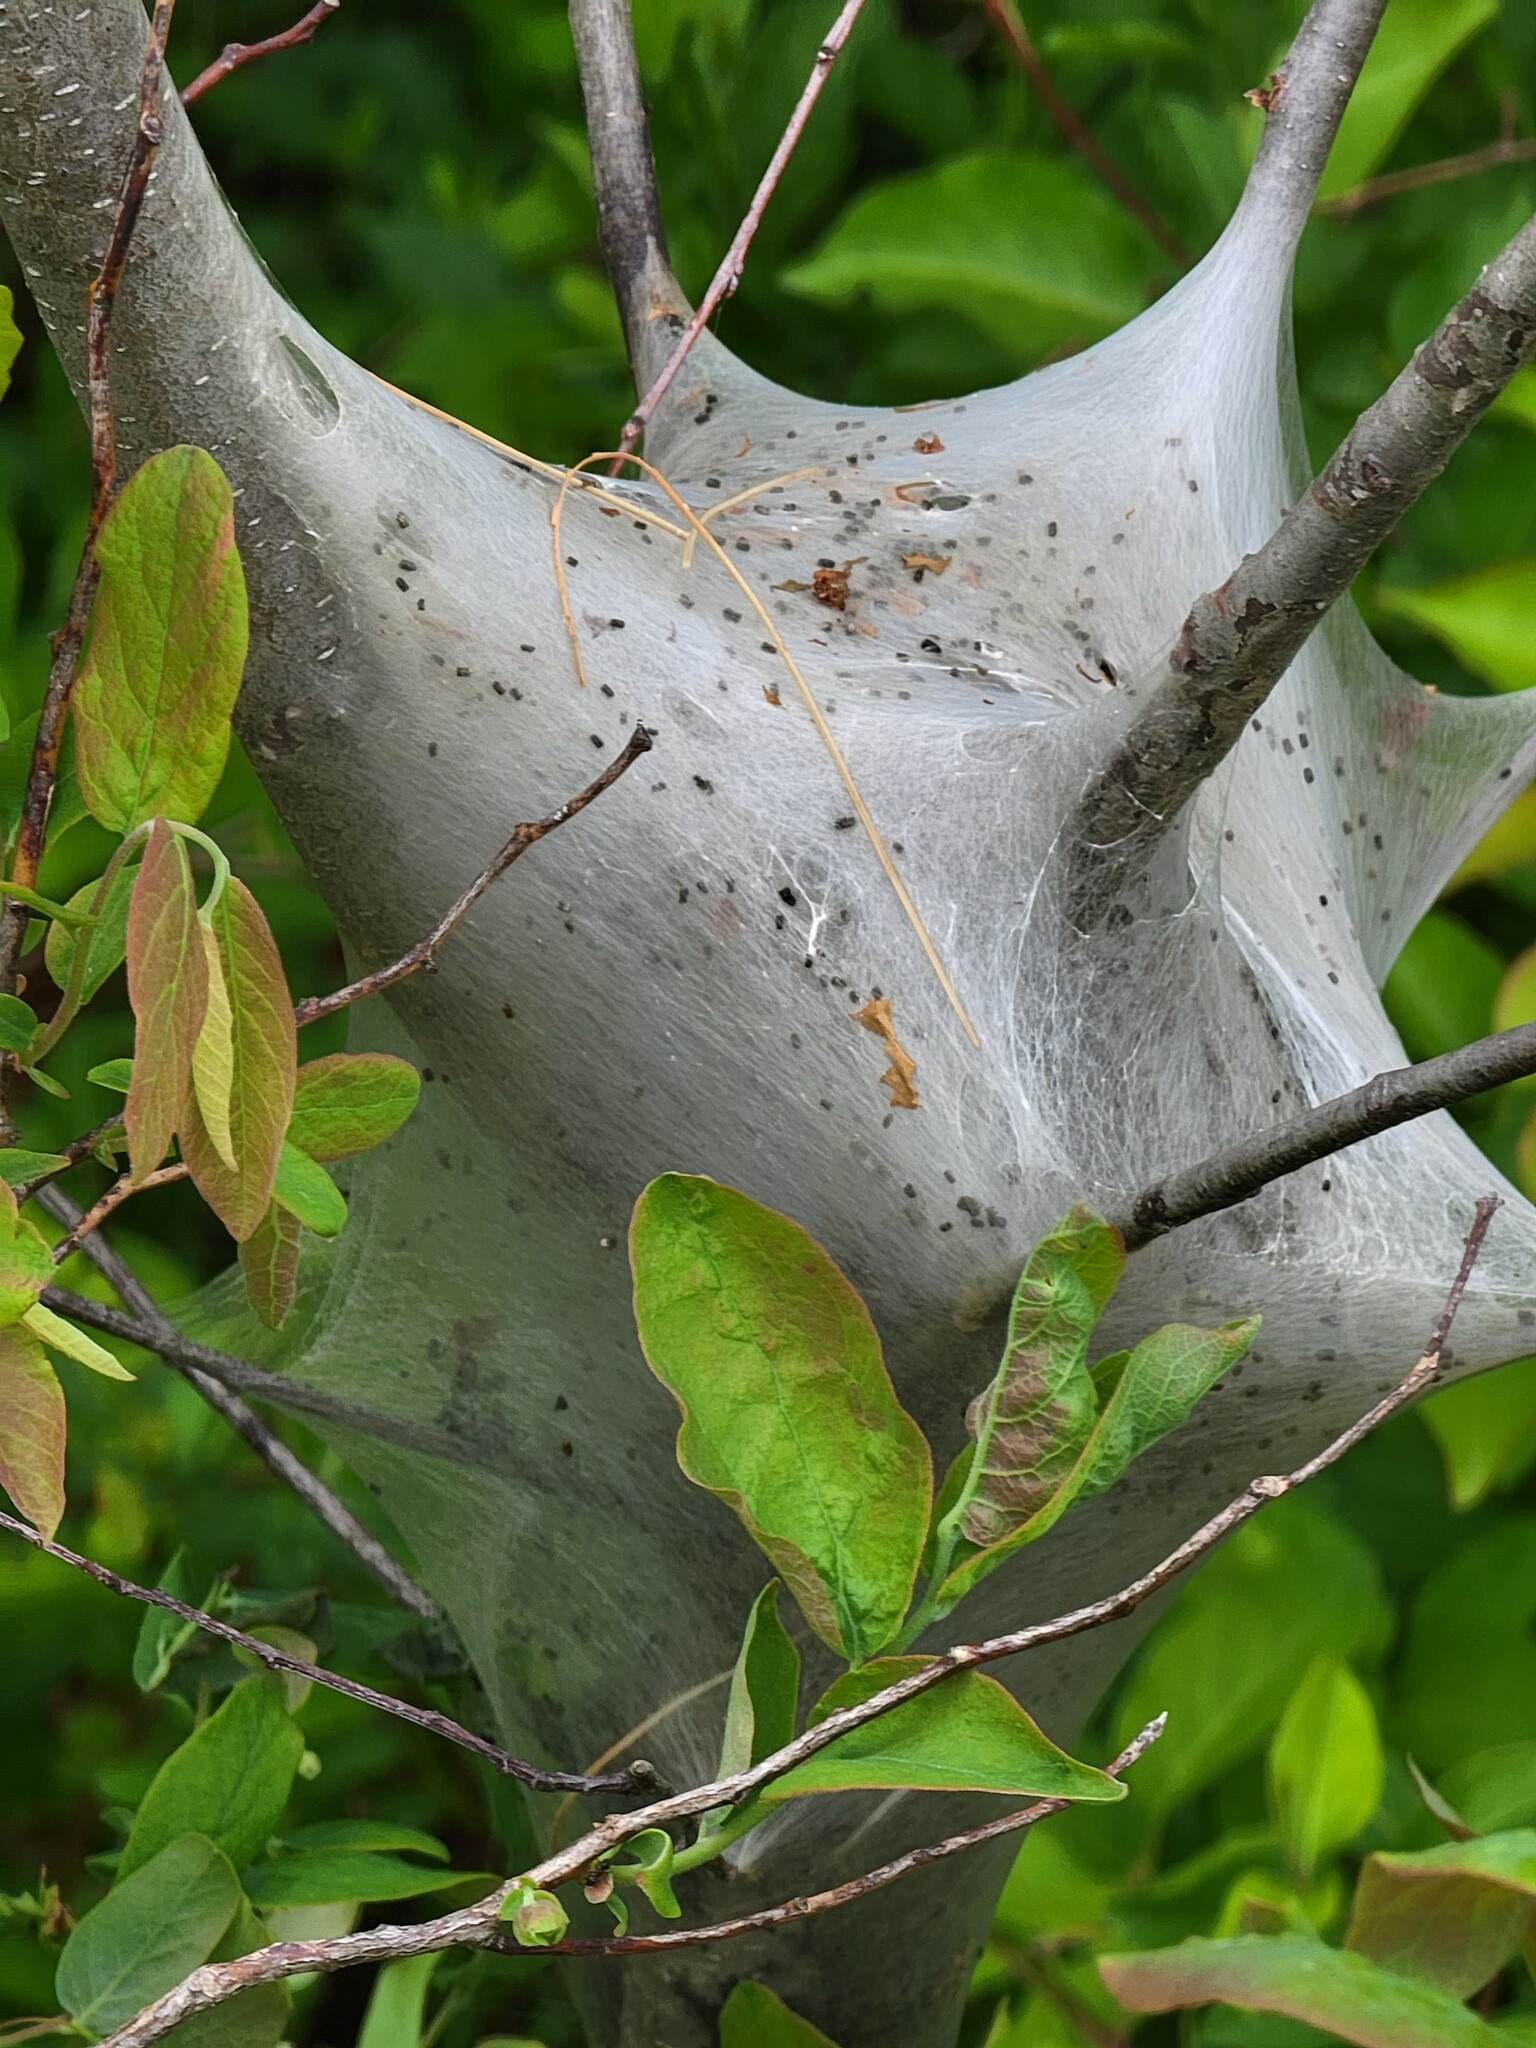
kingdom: Animalia
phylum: Arthropoda
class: Insecta
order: Lepidoptera
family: Lasiocampidae
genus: Malacosoma
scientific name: Malacosoma americana
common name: Eastern tent caterpillar moth
